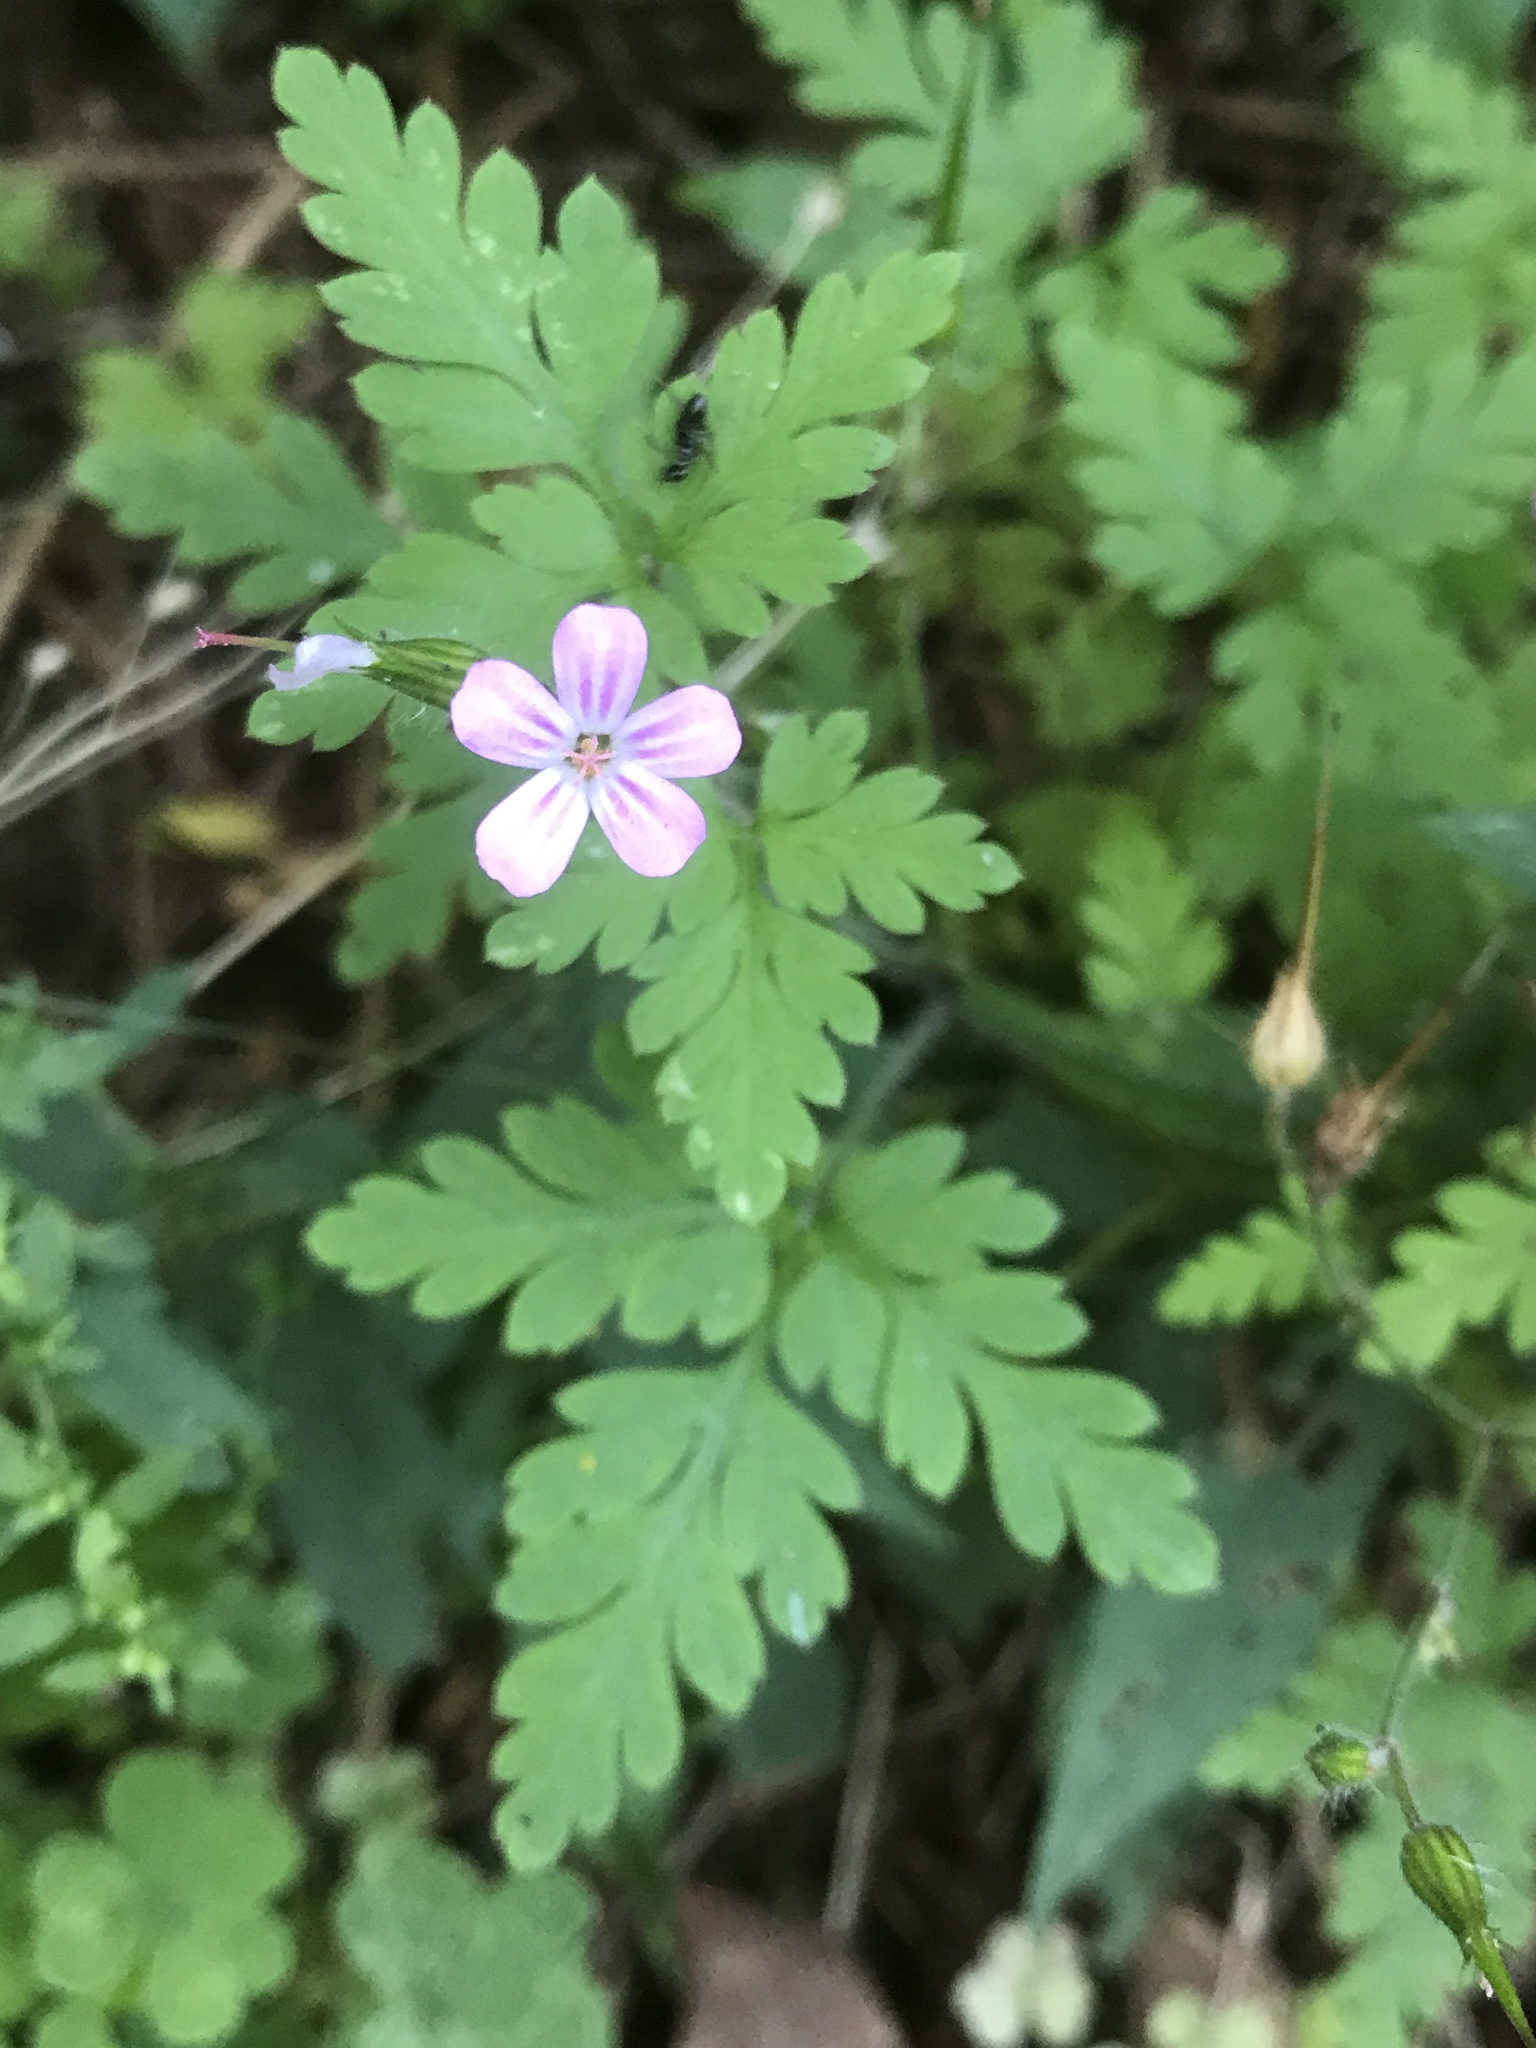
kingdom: Plantae
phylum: Tracheophyta
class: Magnoliopsida
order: Geraniales
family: Geraniaceae
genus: Geranium
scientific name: Geranium robertianum
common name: Herb-robert
